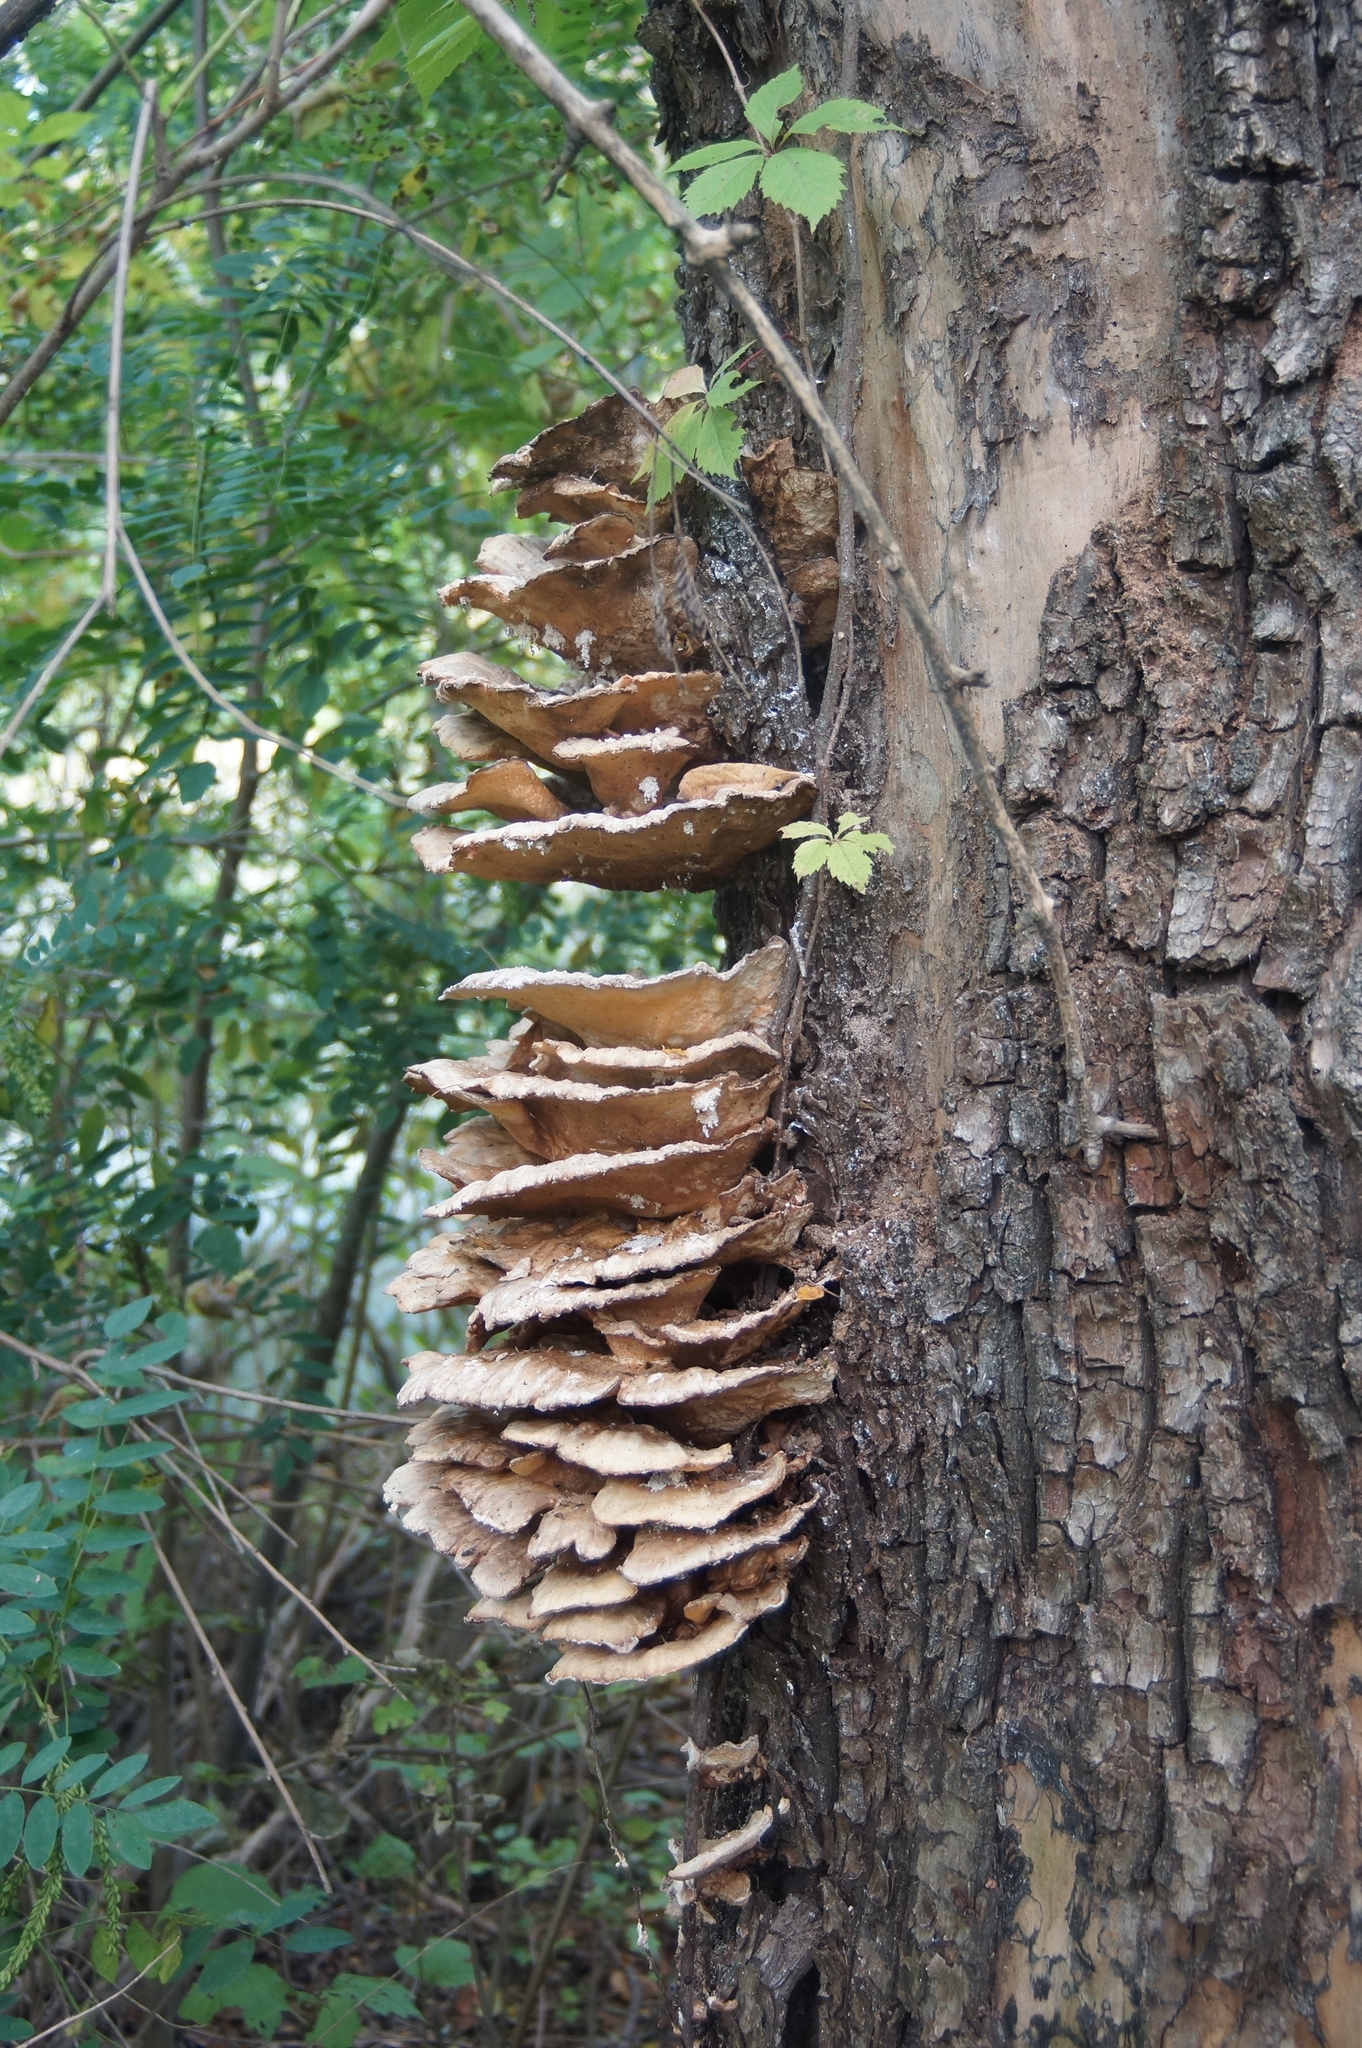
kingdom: Fungi
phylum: Basidiomycota
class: Agaricomycetes
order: Polyporales
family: Laetiporaceae
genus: Laetiporus
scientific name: Laetiporus sulphureus
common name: Chicken of the woods
